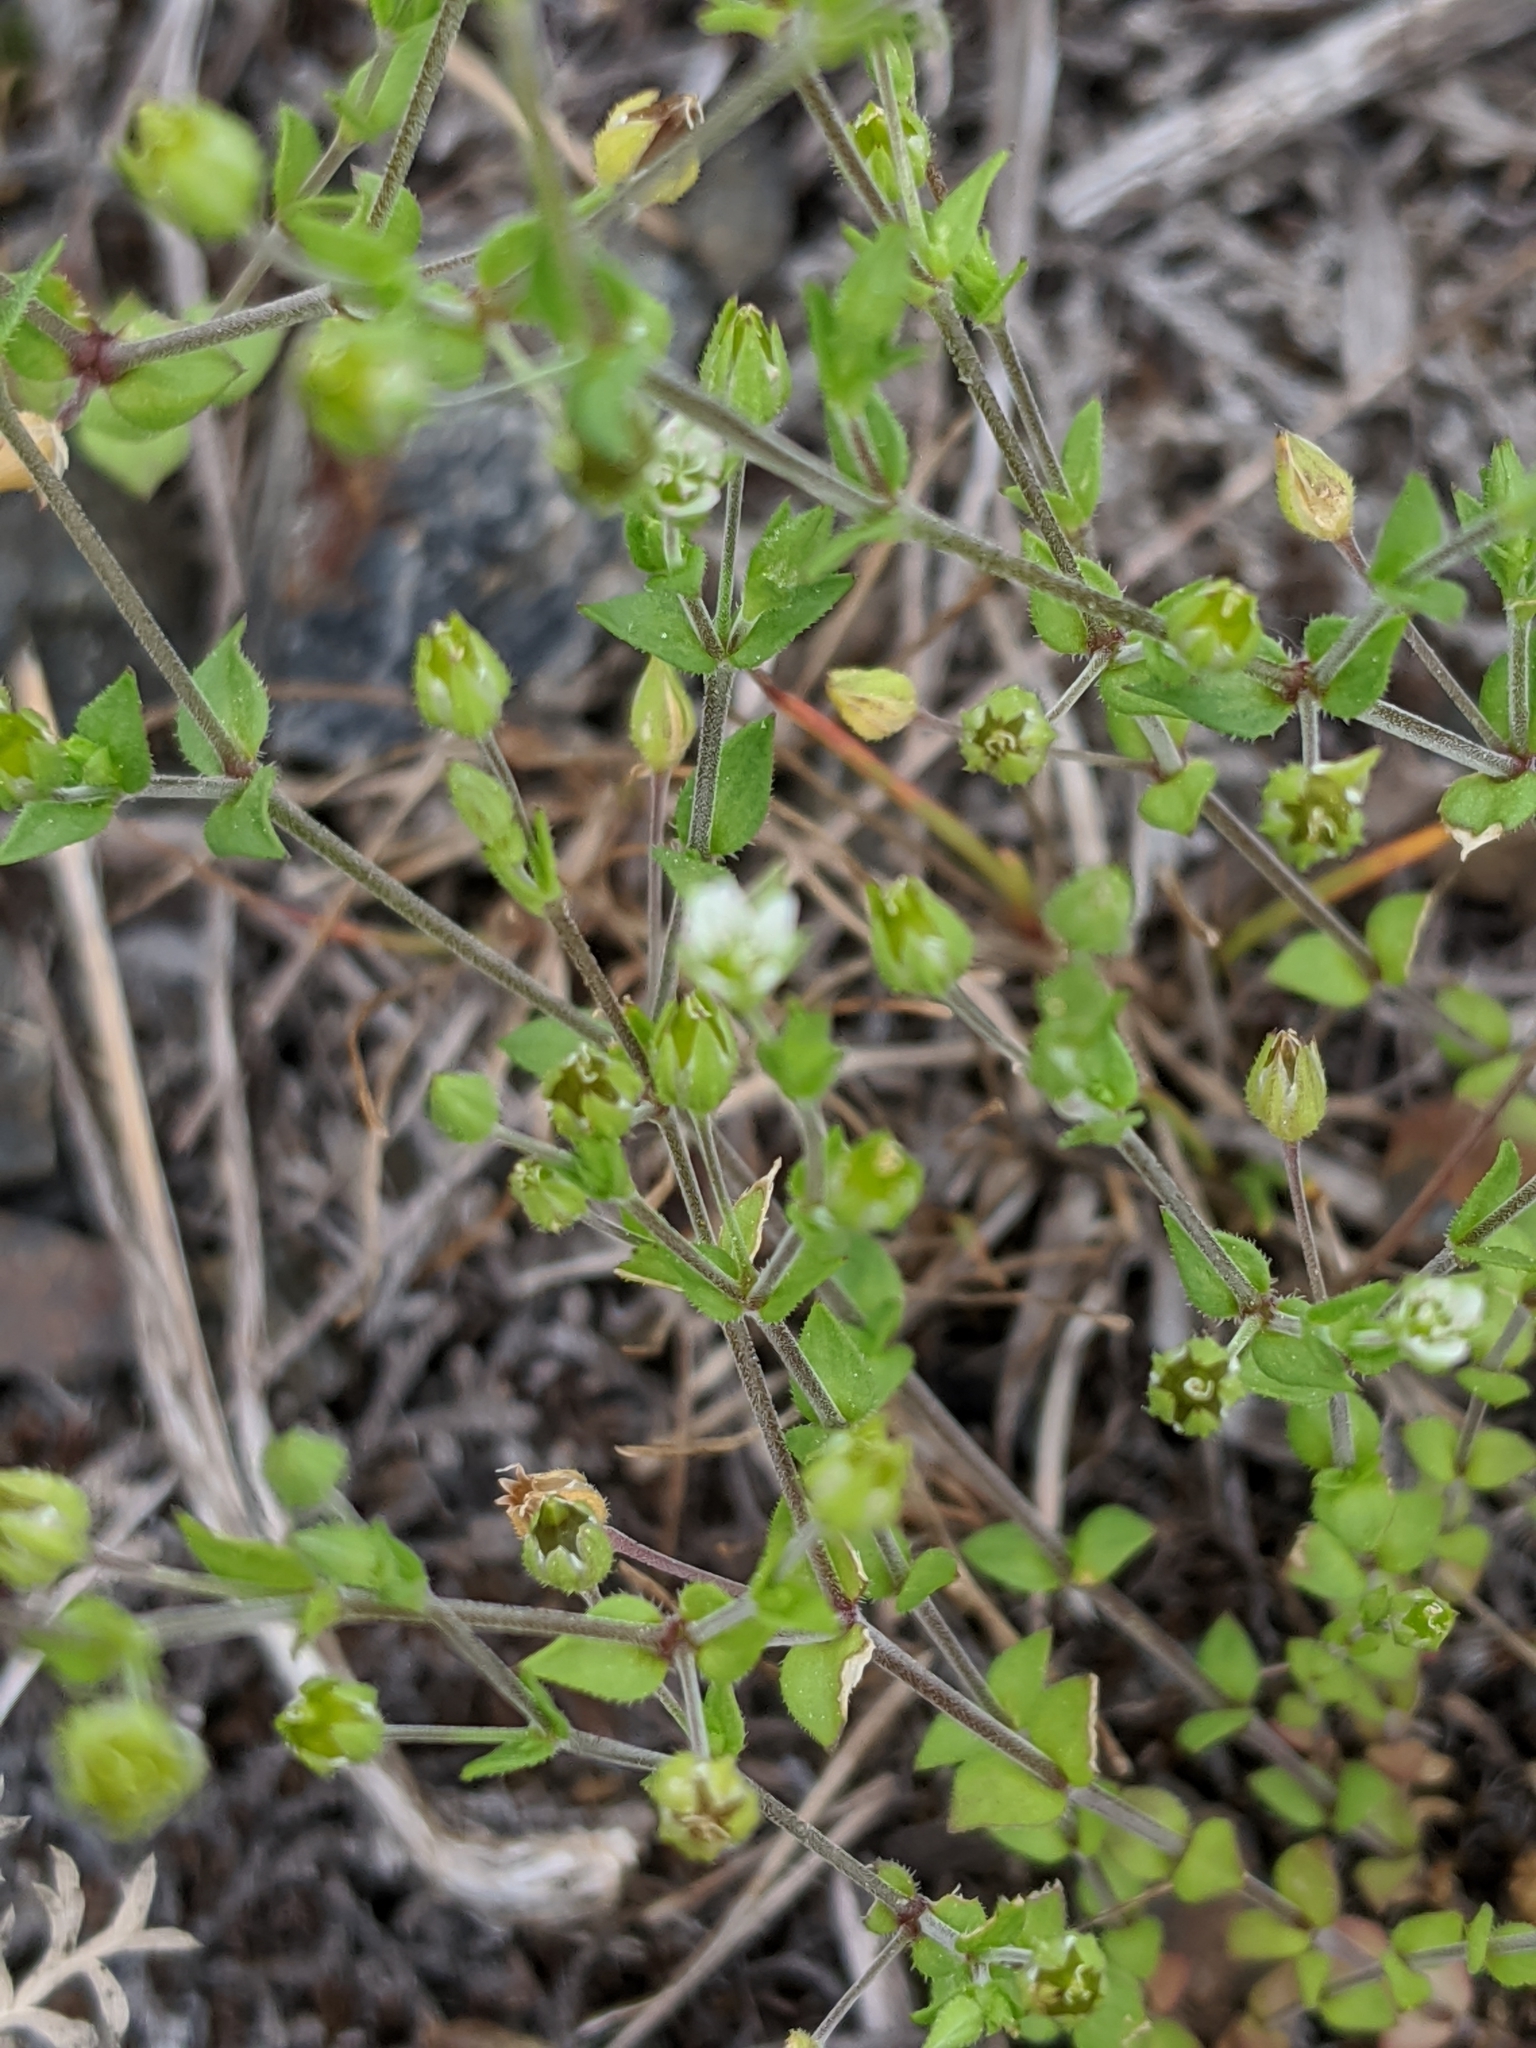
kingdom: Plantae
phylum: Tracheophyta
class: Magnoliopsida
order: Caryophyllales
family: Caryophyllaceae
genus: Arenaria
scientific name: Arenaria serpyllifolia
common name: Thyme-leaved sandwort
